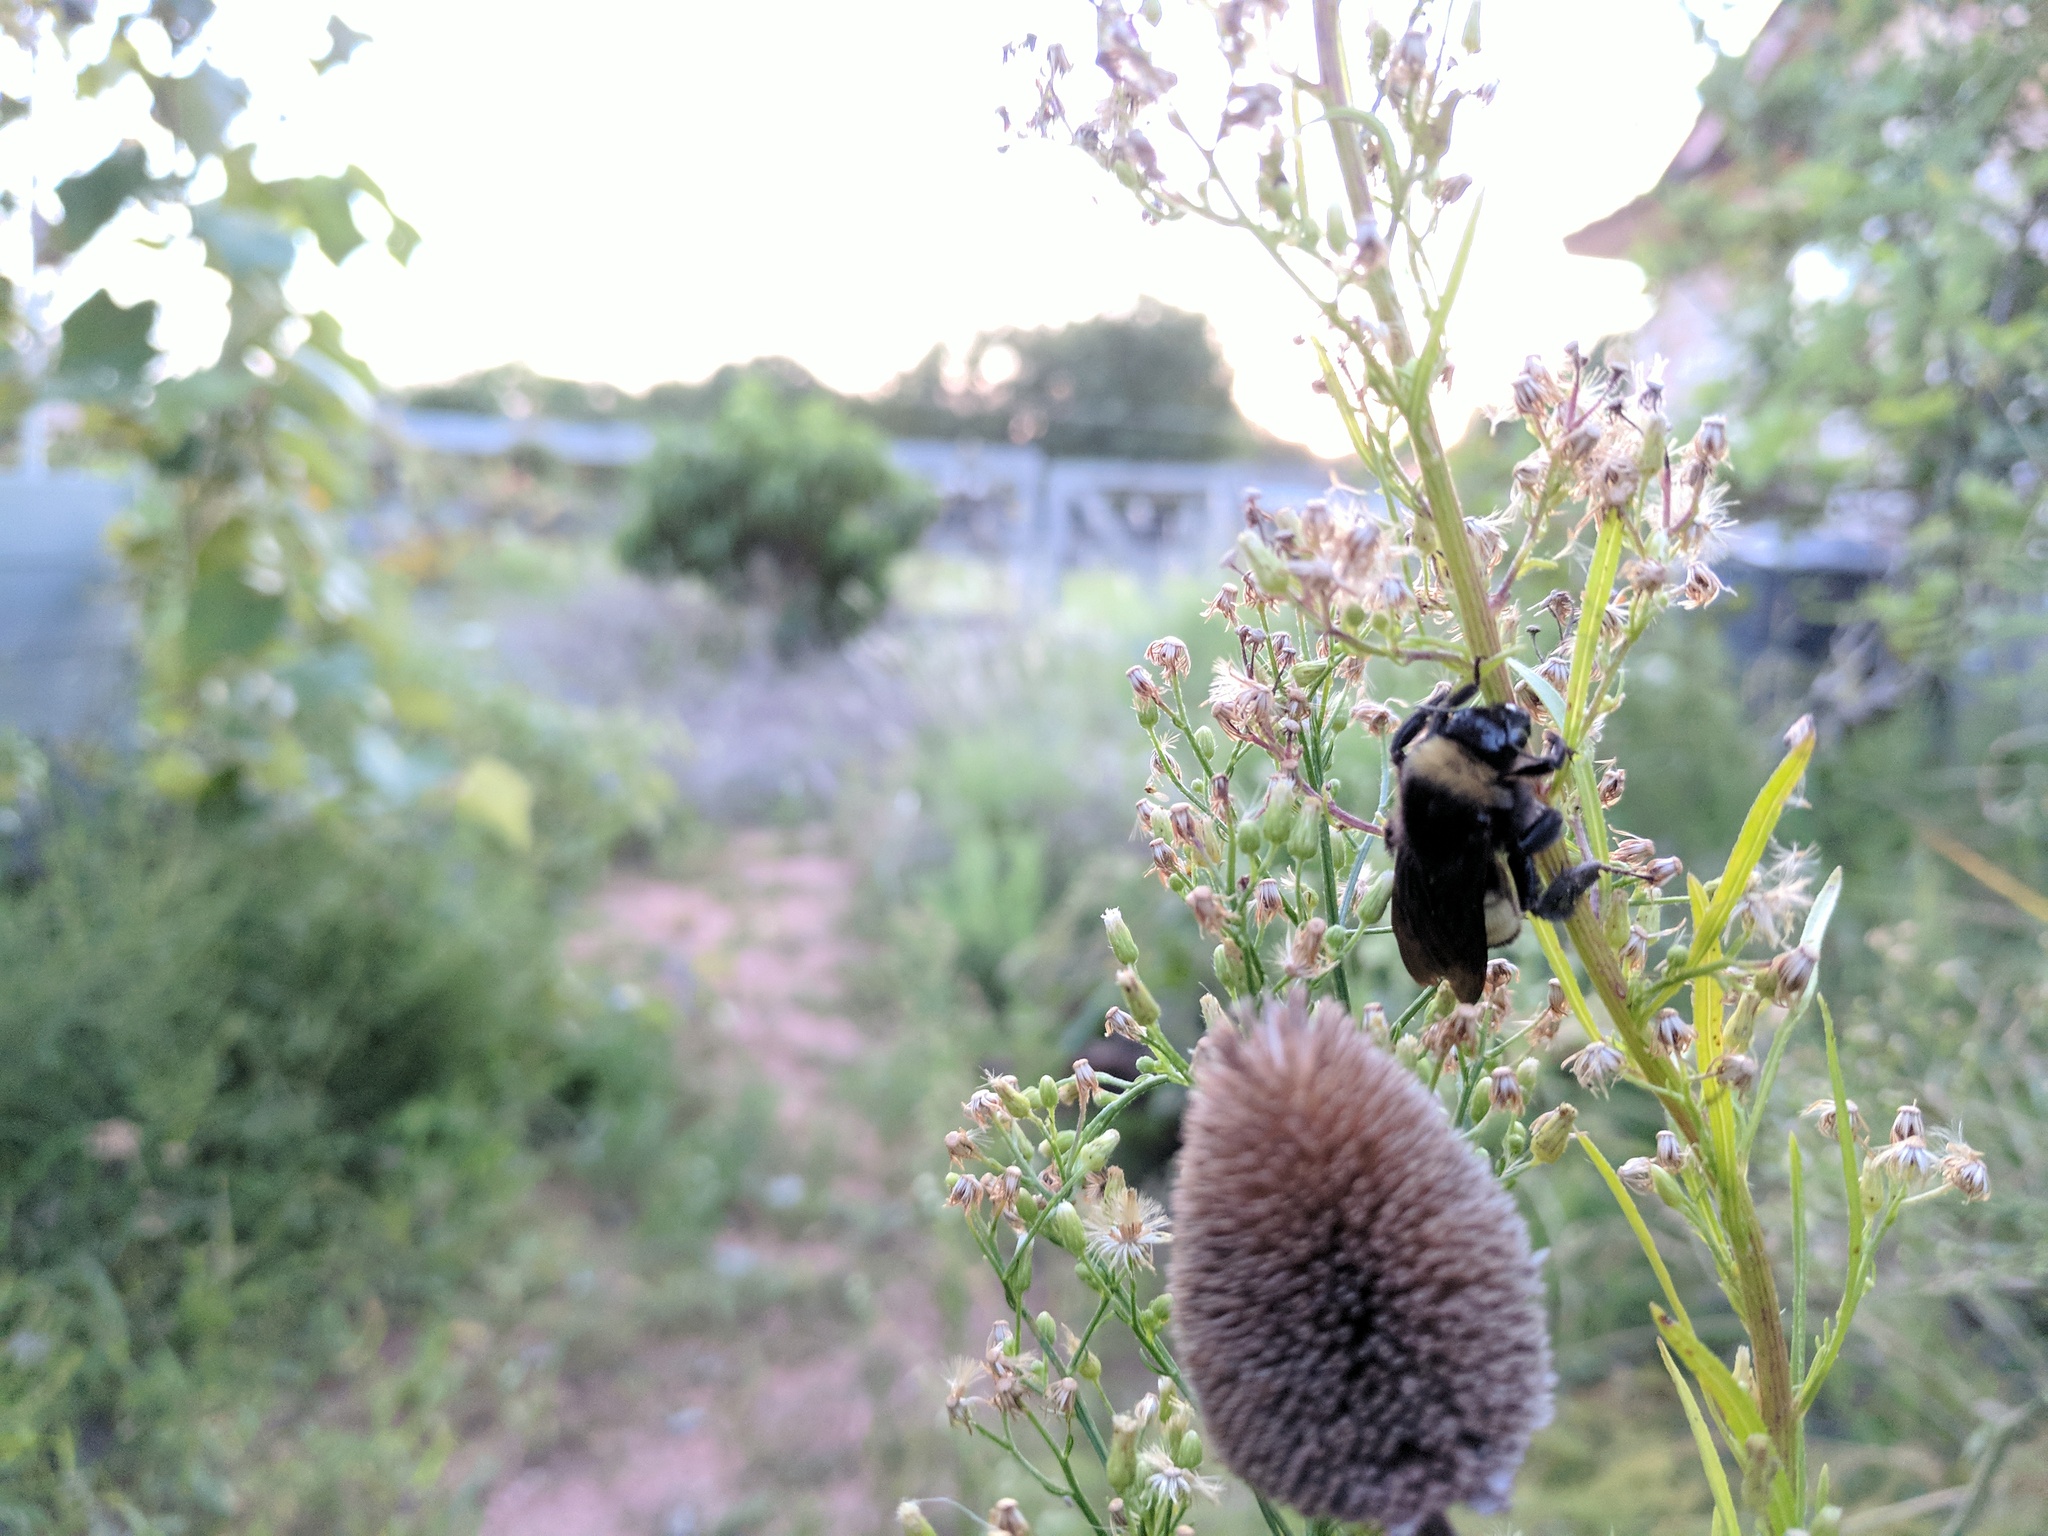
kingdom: Animalia
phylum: Arthropoda
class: Insecta
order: Hymenoptera
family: Apidae
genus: Bombus
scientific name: Bombus pensylvanicus
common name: Bumble bee
